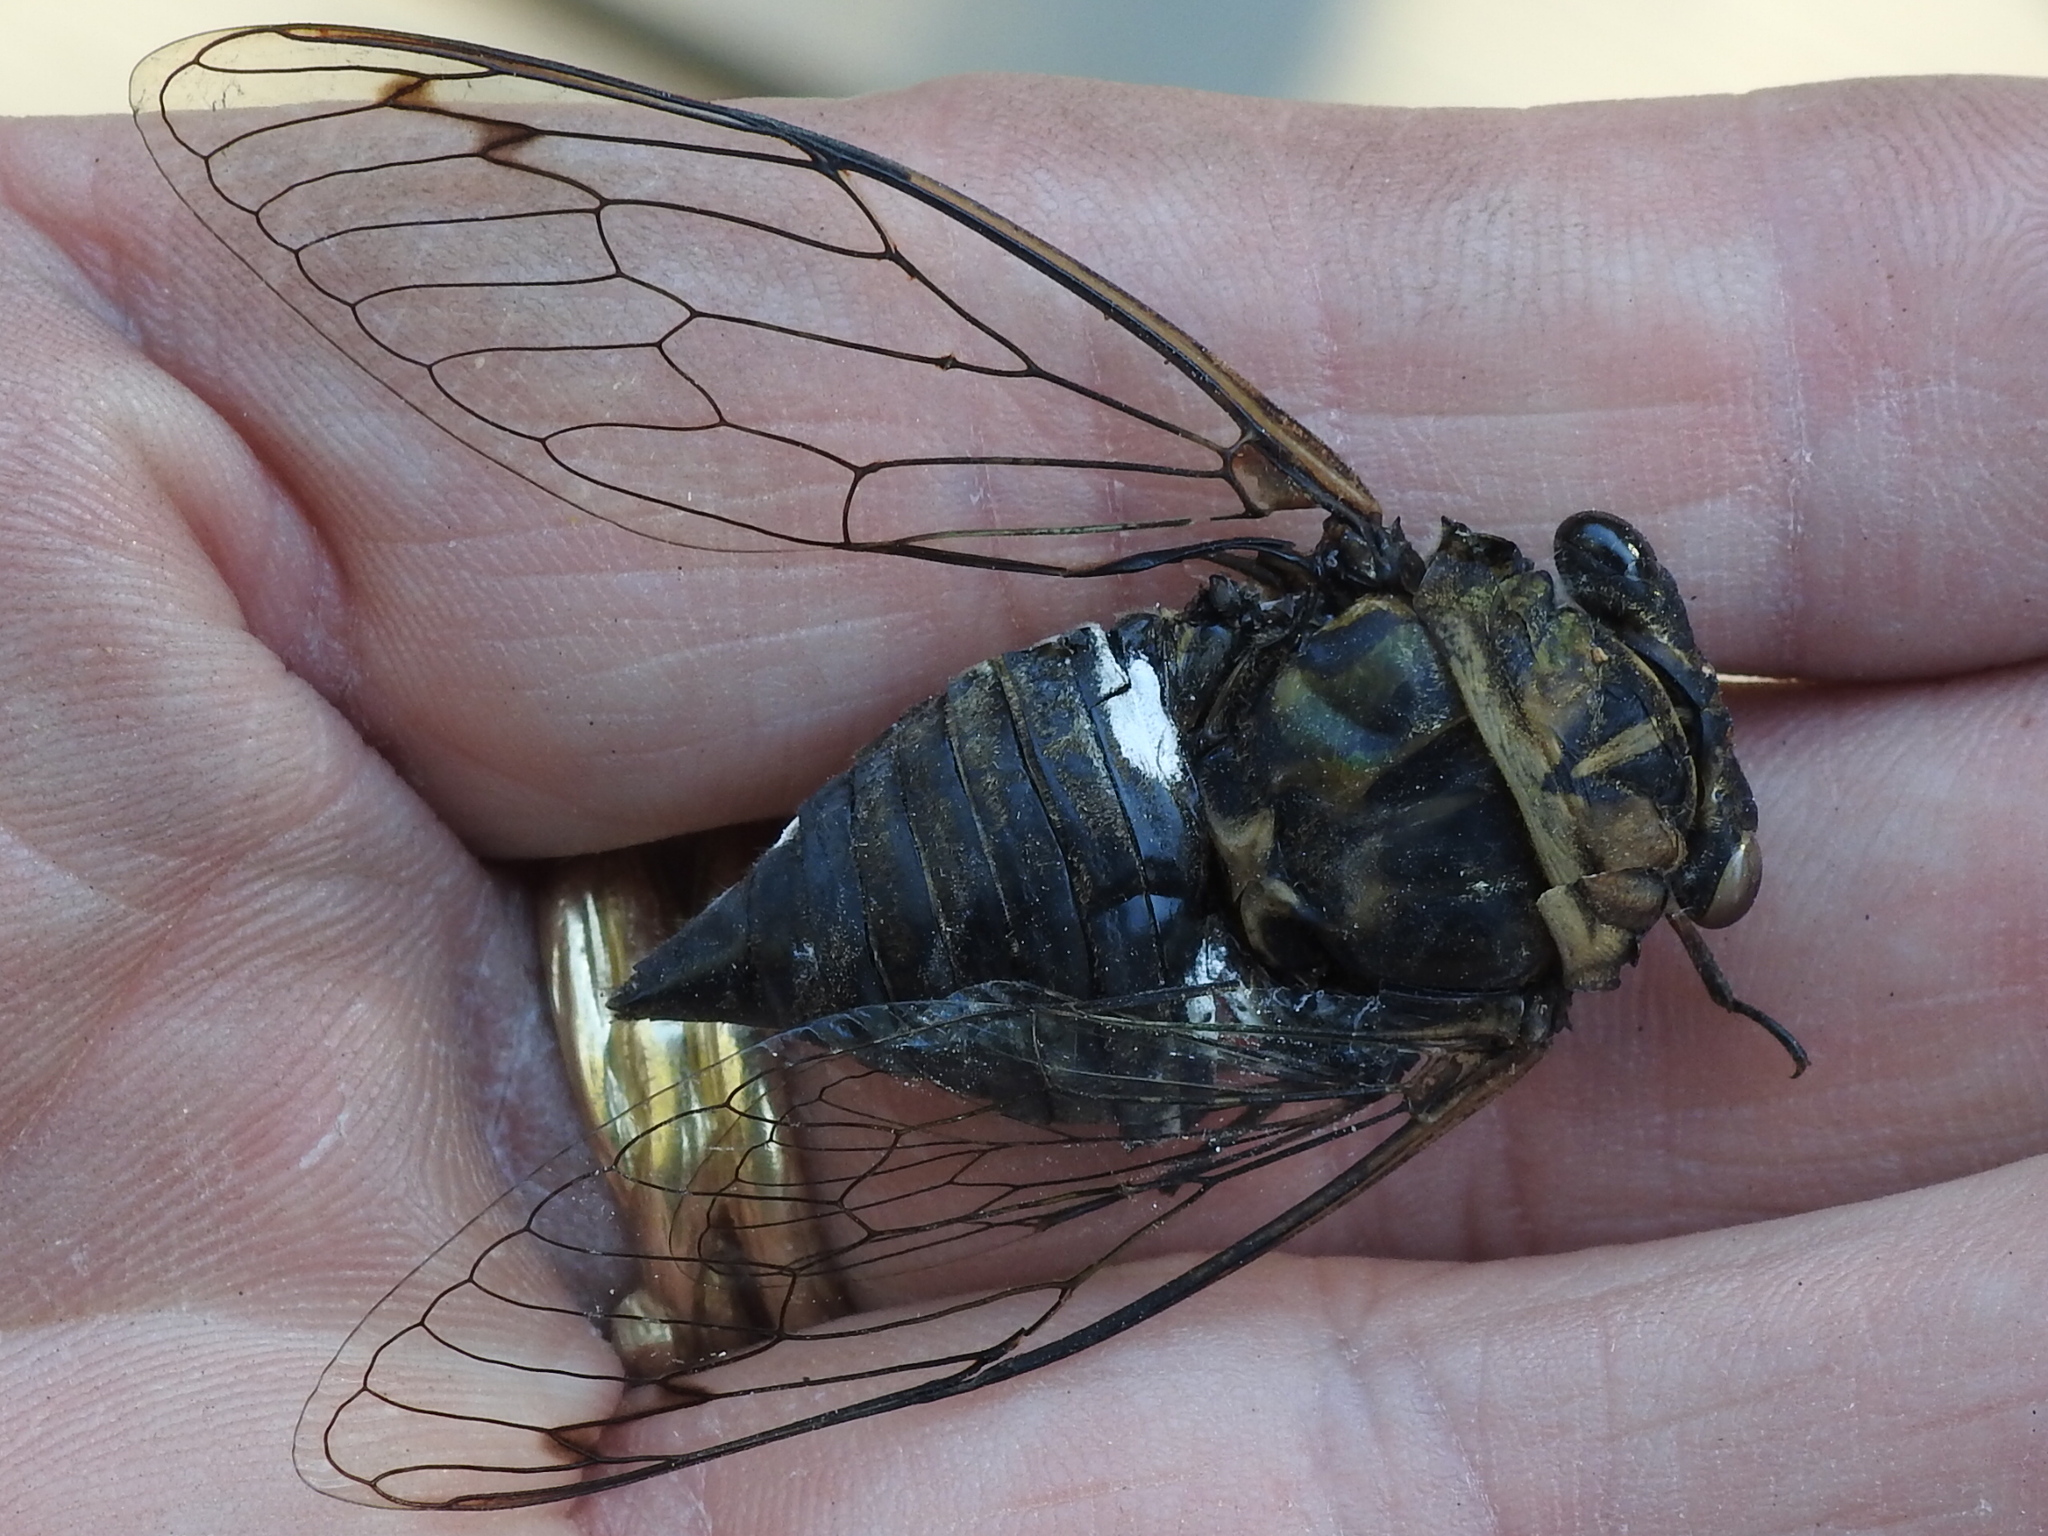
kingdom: Animalia
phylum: Arthropoda
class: Insecta
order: Hemiptera
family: Cicadidae
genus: Neotibicen
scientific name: Neotibicen pruinosus
